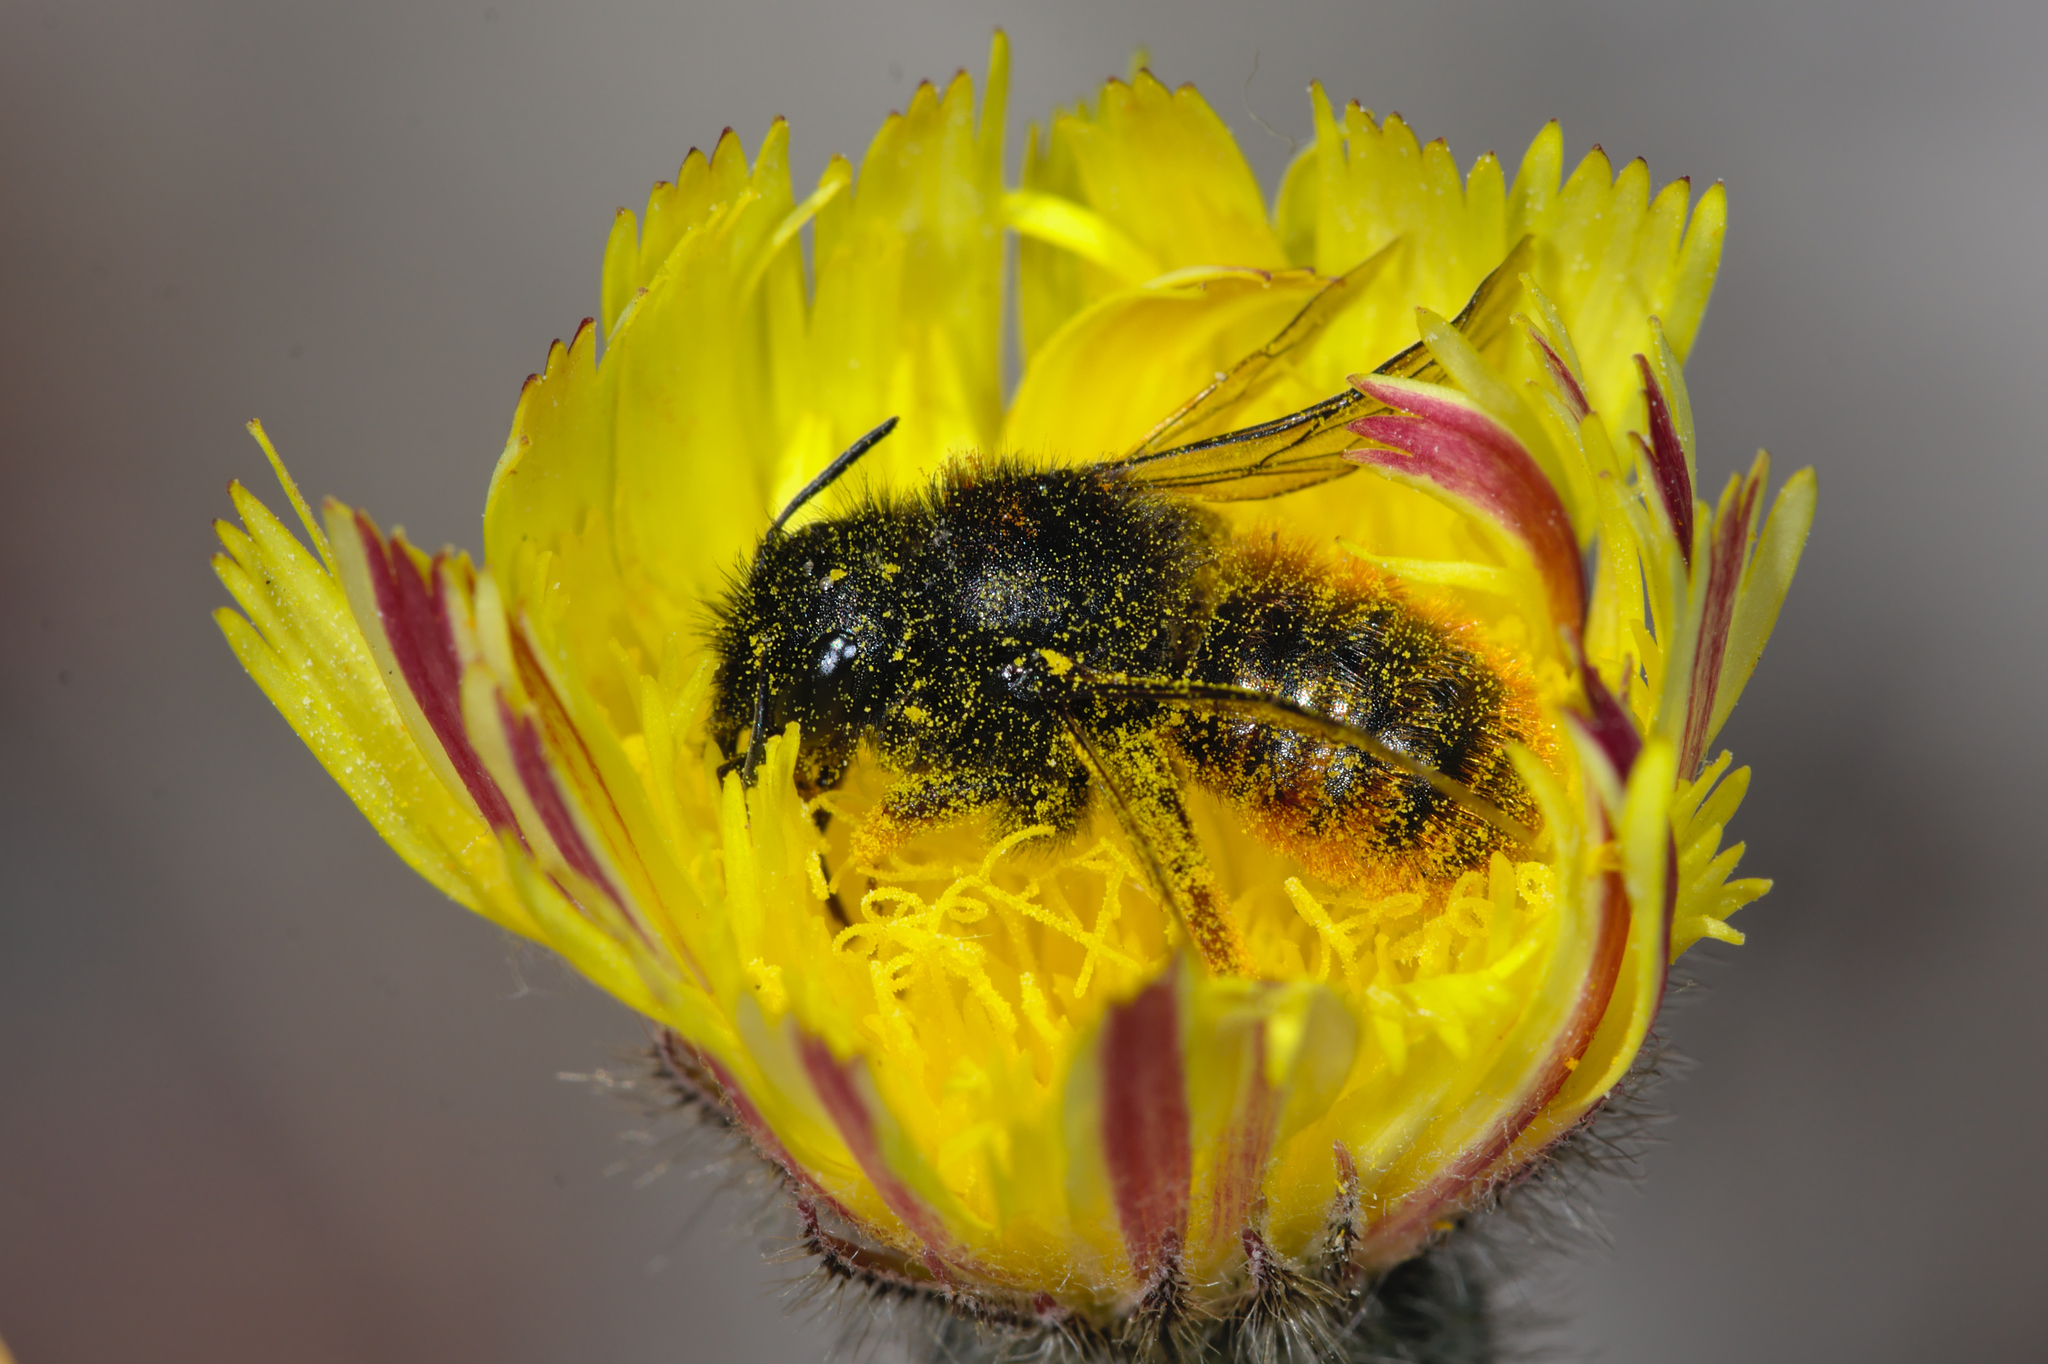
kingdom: Animalia
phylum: Arthropoda
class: Insecta
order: Hymenoptera
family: Megachilidae
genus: Osmia
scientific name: Osmia bicolor
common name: Red-tailed mason bee
